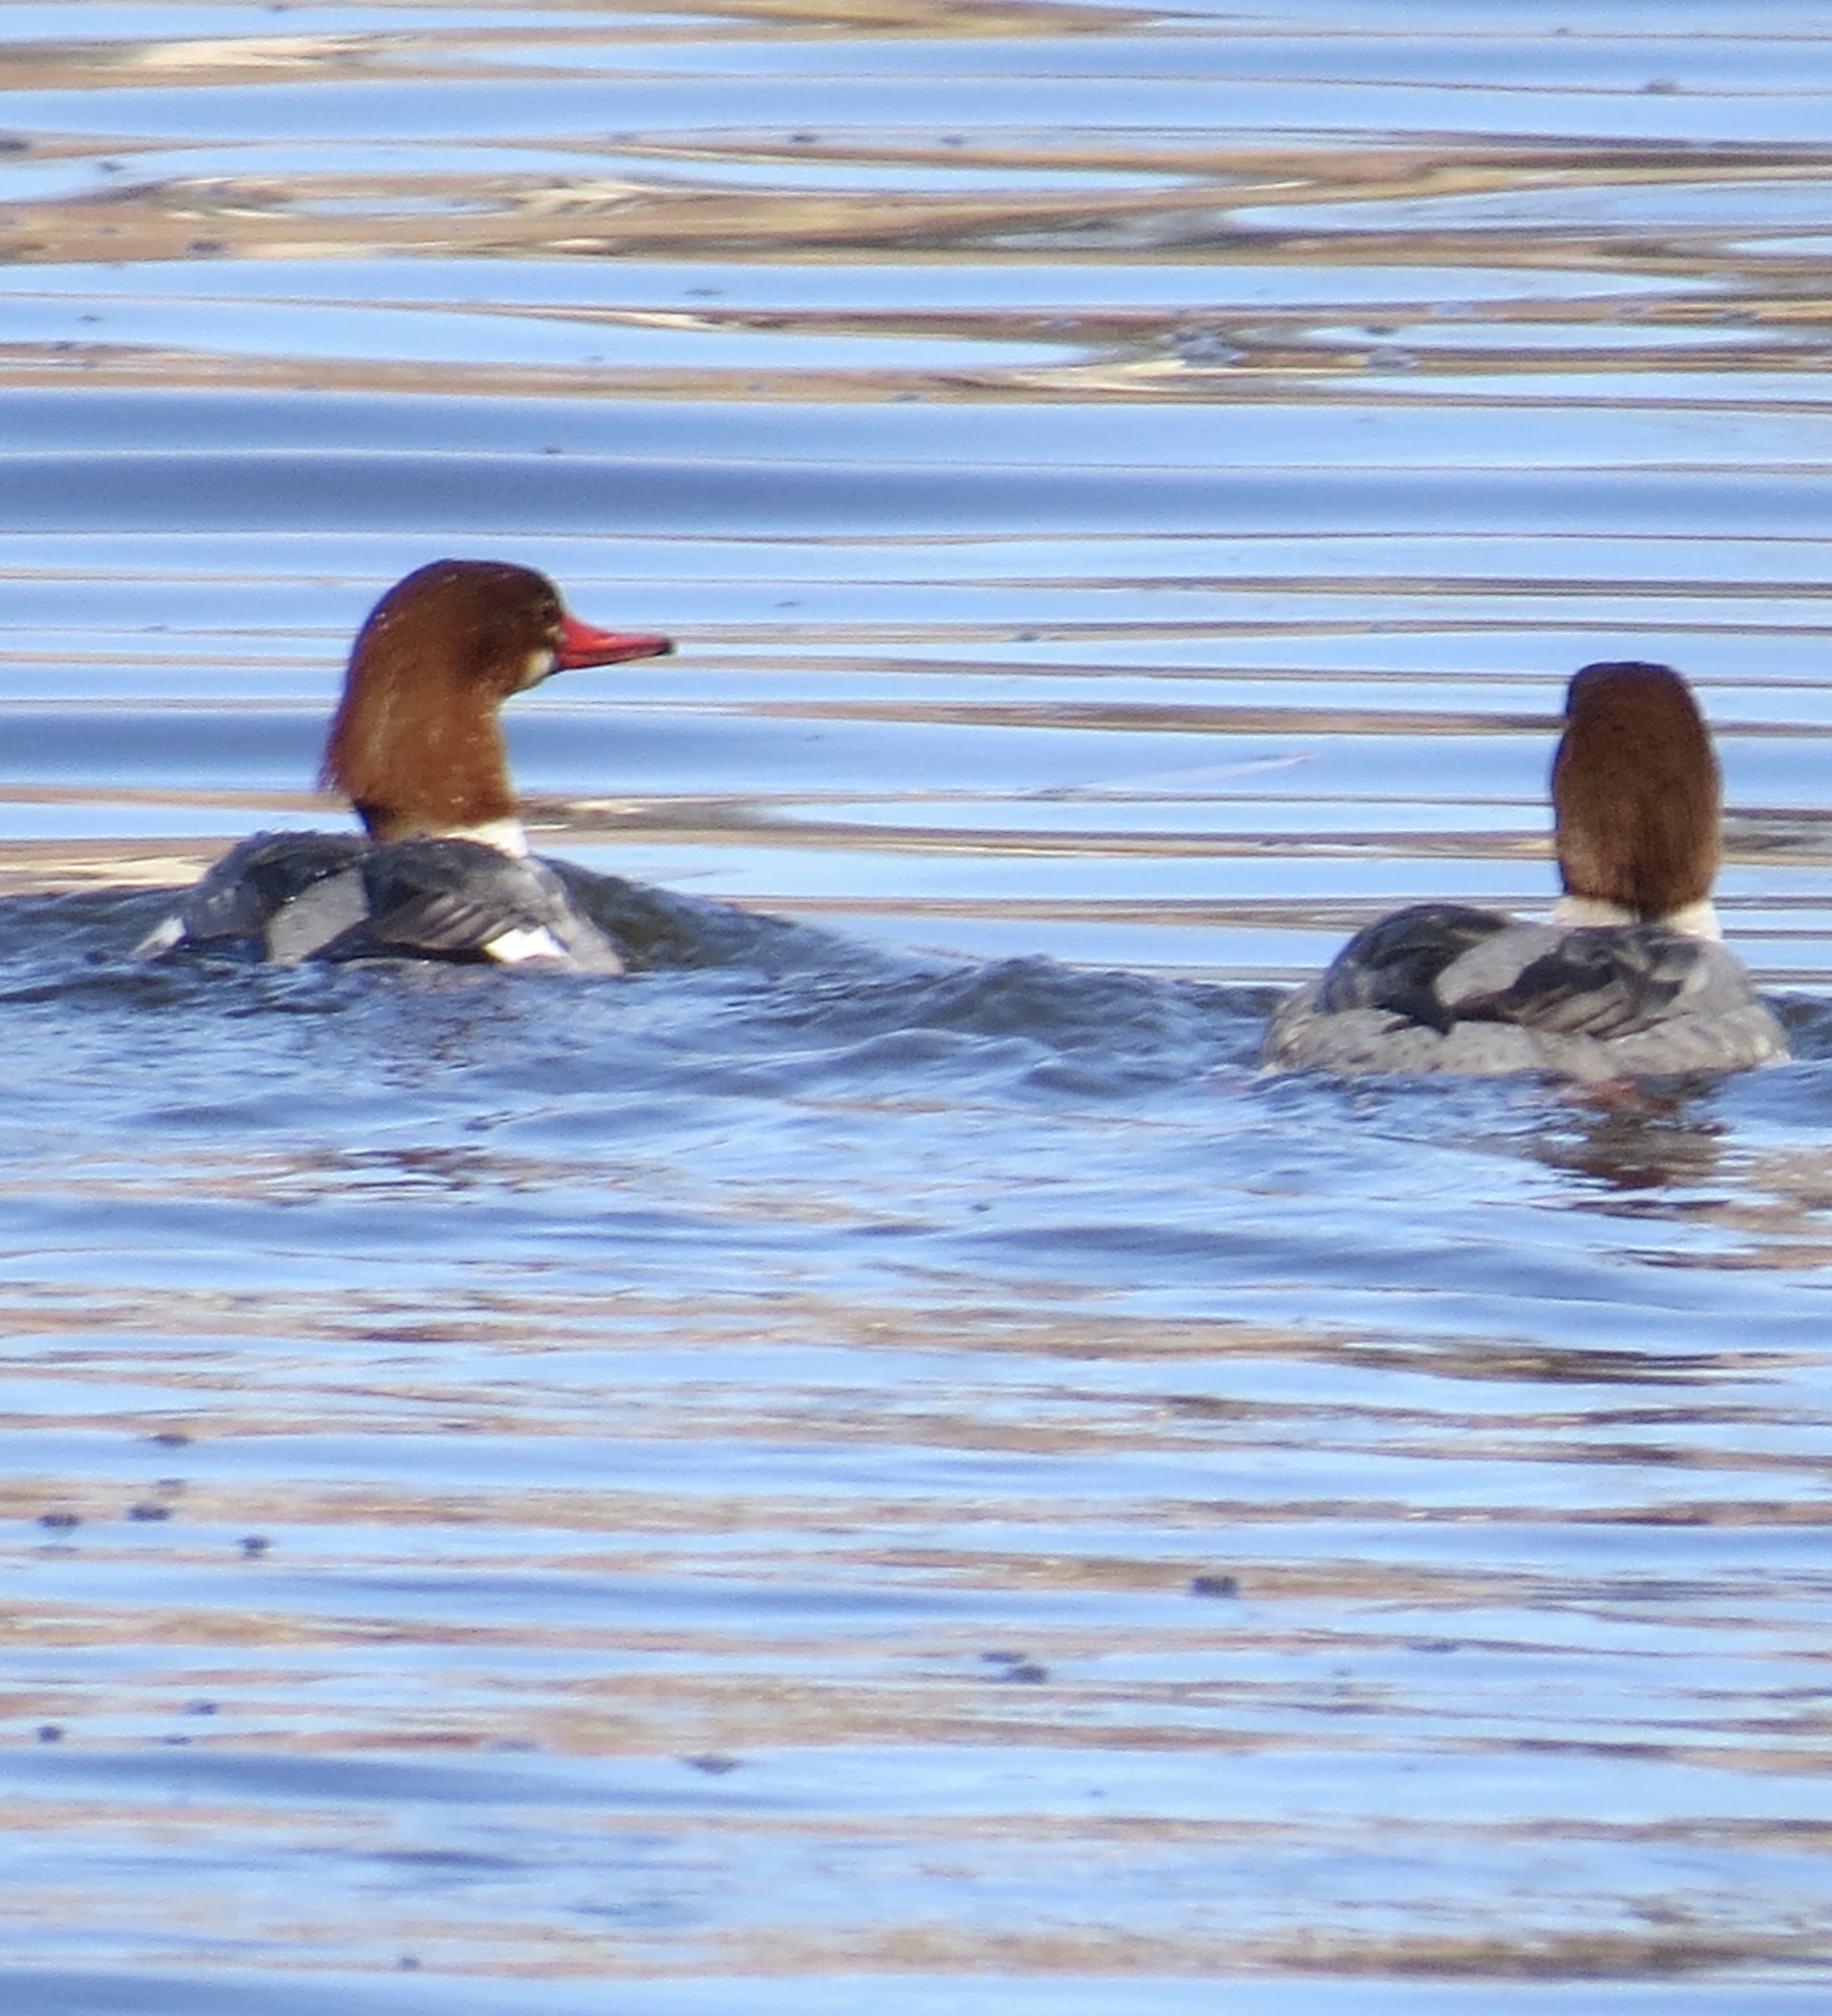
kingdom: Animalia
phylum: Chordata
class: Aves
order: Anseriformes
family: Anatidae
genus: Mergus
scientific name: Mergus merganser
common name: Common merganser
